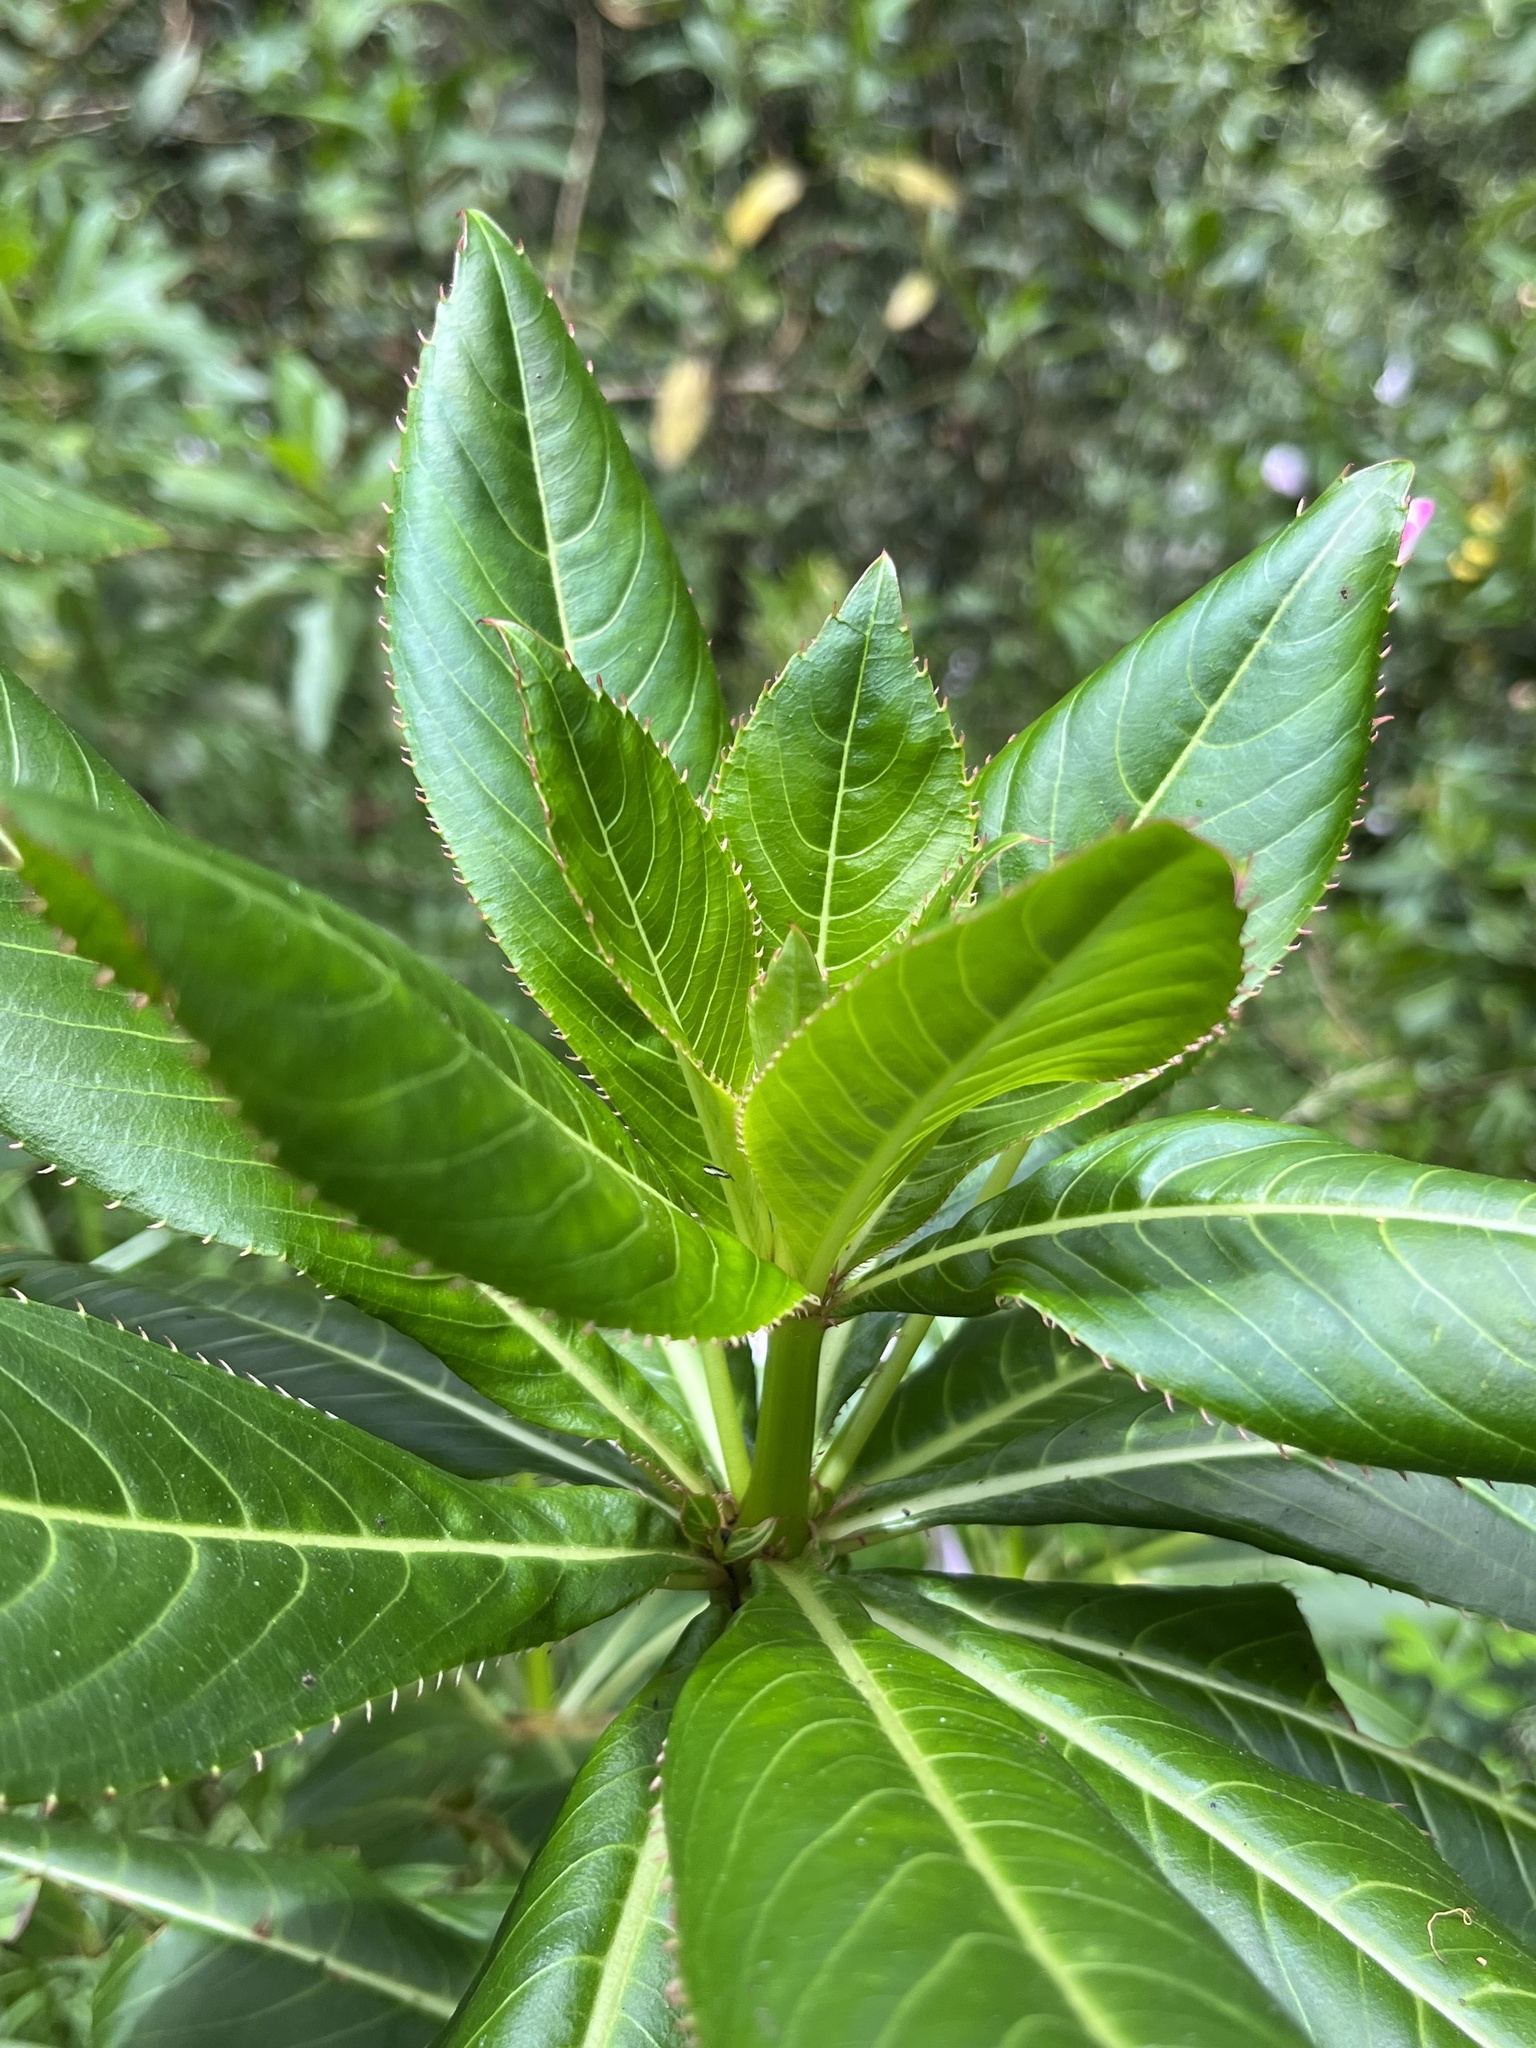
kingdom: Plantae
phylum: Tracheophyta
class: Magnoliopsida
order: Ericales
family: Balsaminaceae
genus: Impatiens
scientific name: Impatiens sodenii
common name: Oliver's touch-me-not
